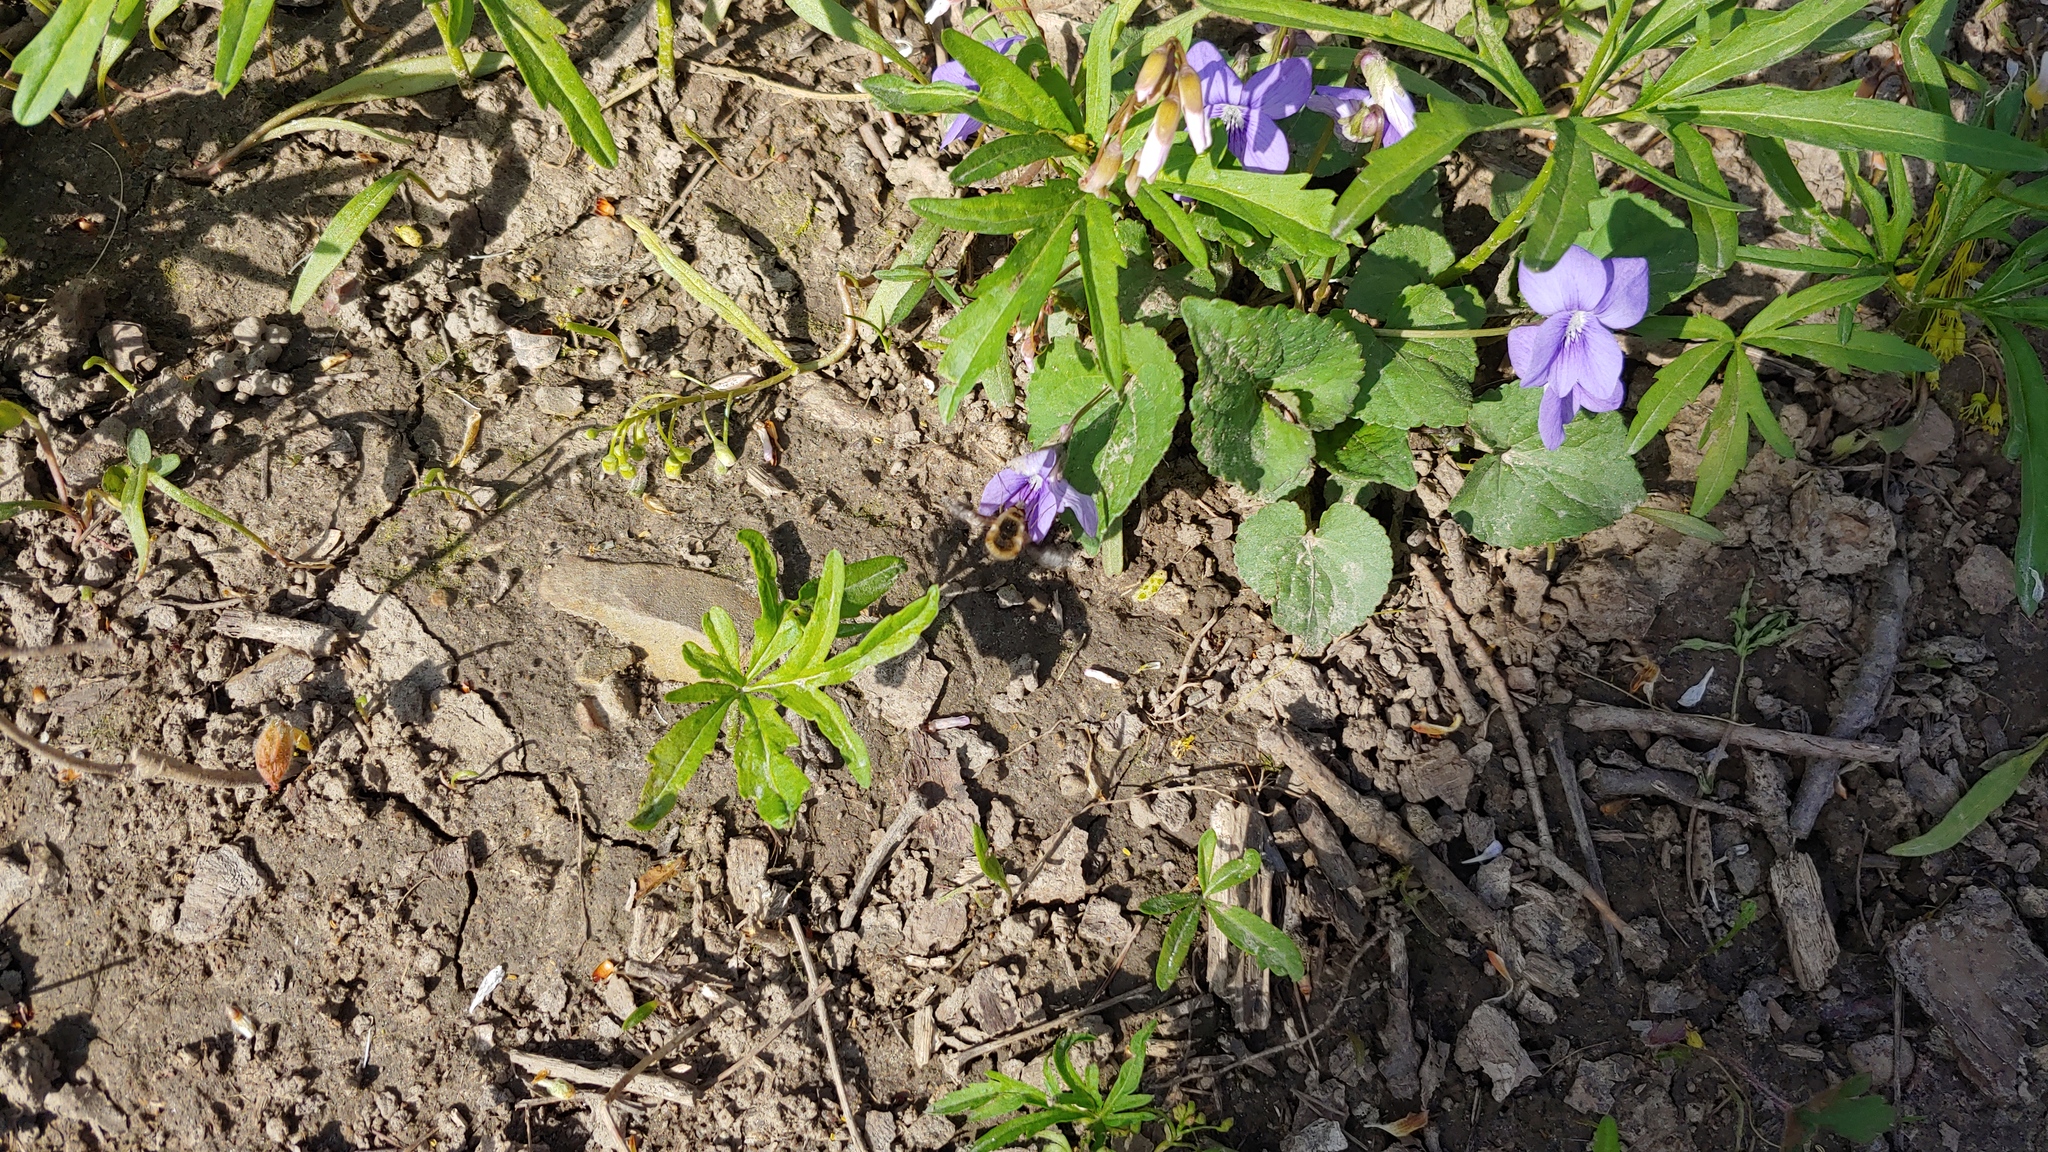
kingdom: Animalia
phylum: Arthropoda
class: Insecta
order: Diptera
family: Bombyliidae
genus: Bombylius
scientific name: Bombylius major
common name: Bee fly
